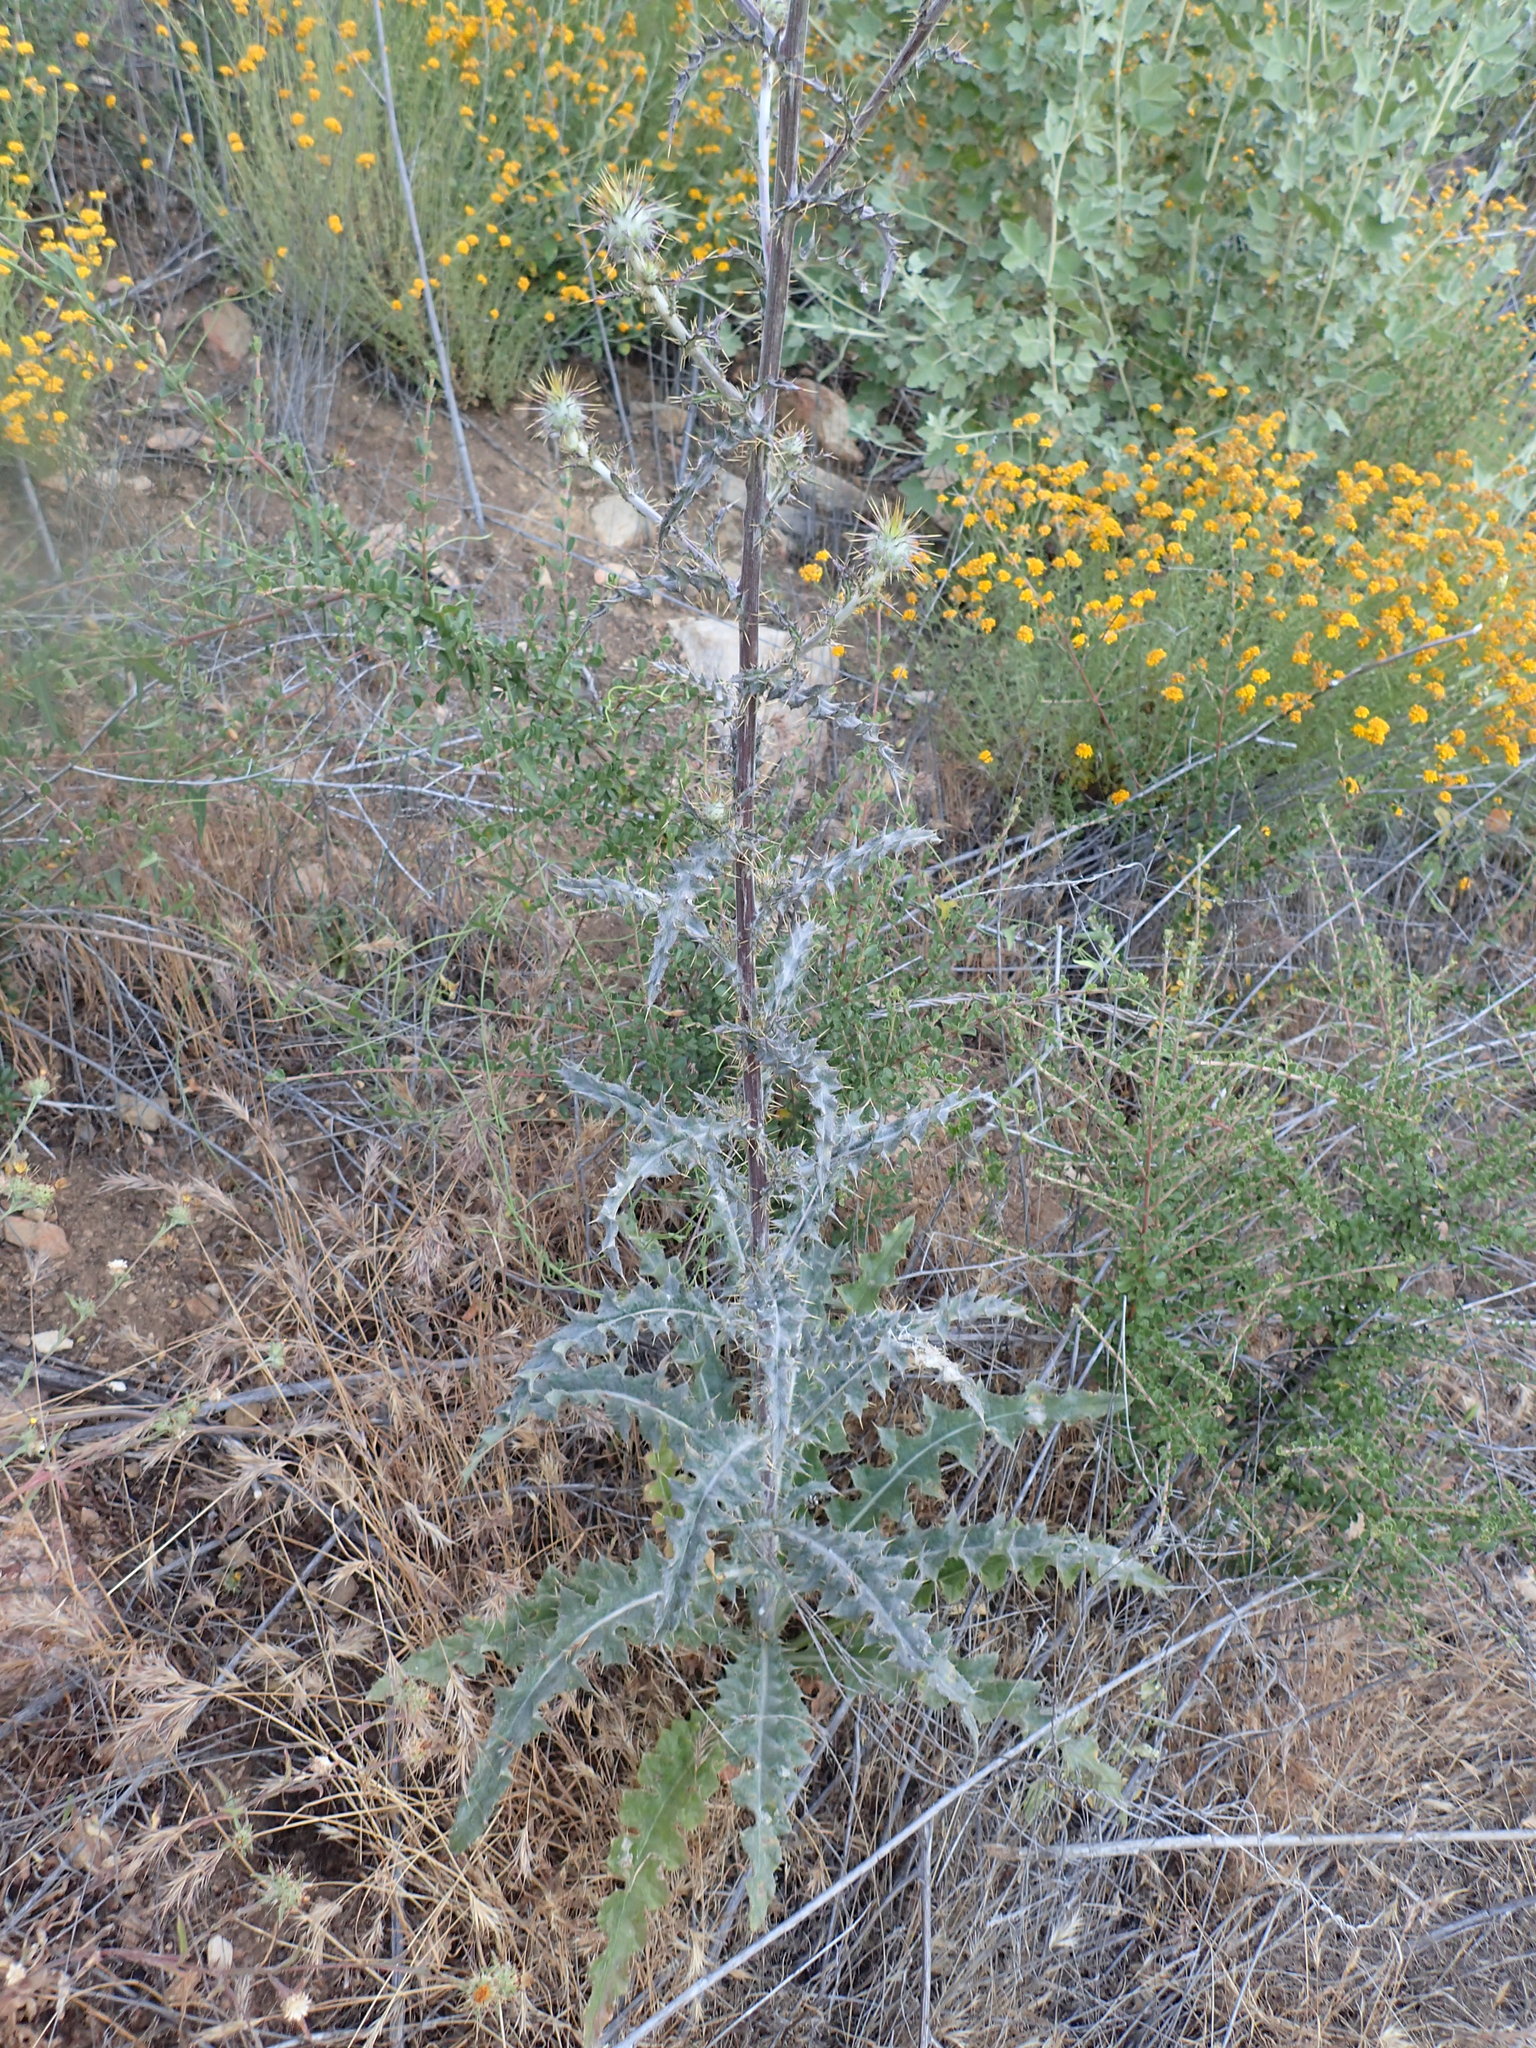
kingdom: Plantae
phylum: Tracheophyta
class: Magnoliopsida
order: Asterales
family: Asteraceae
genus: Cirsium
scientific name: Cirsium occidentale
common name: Western thistle
